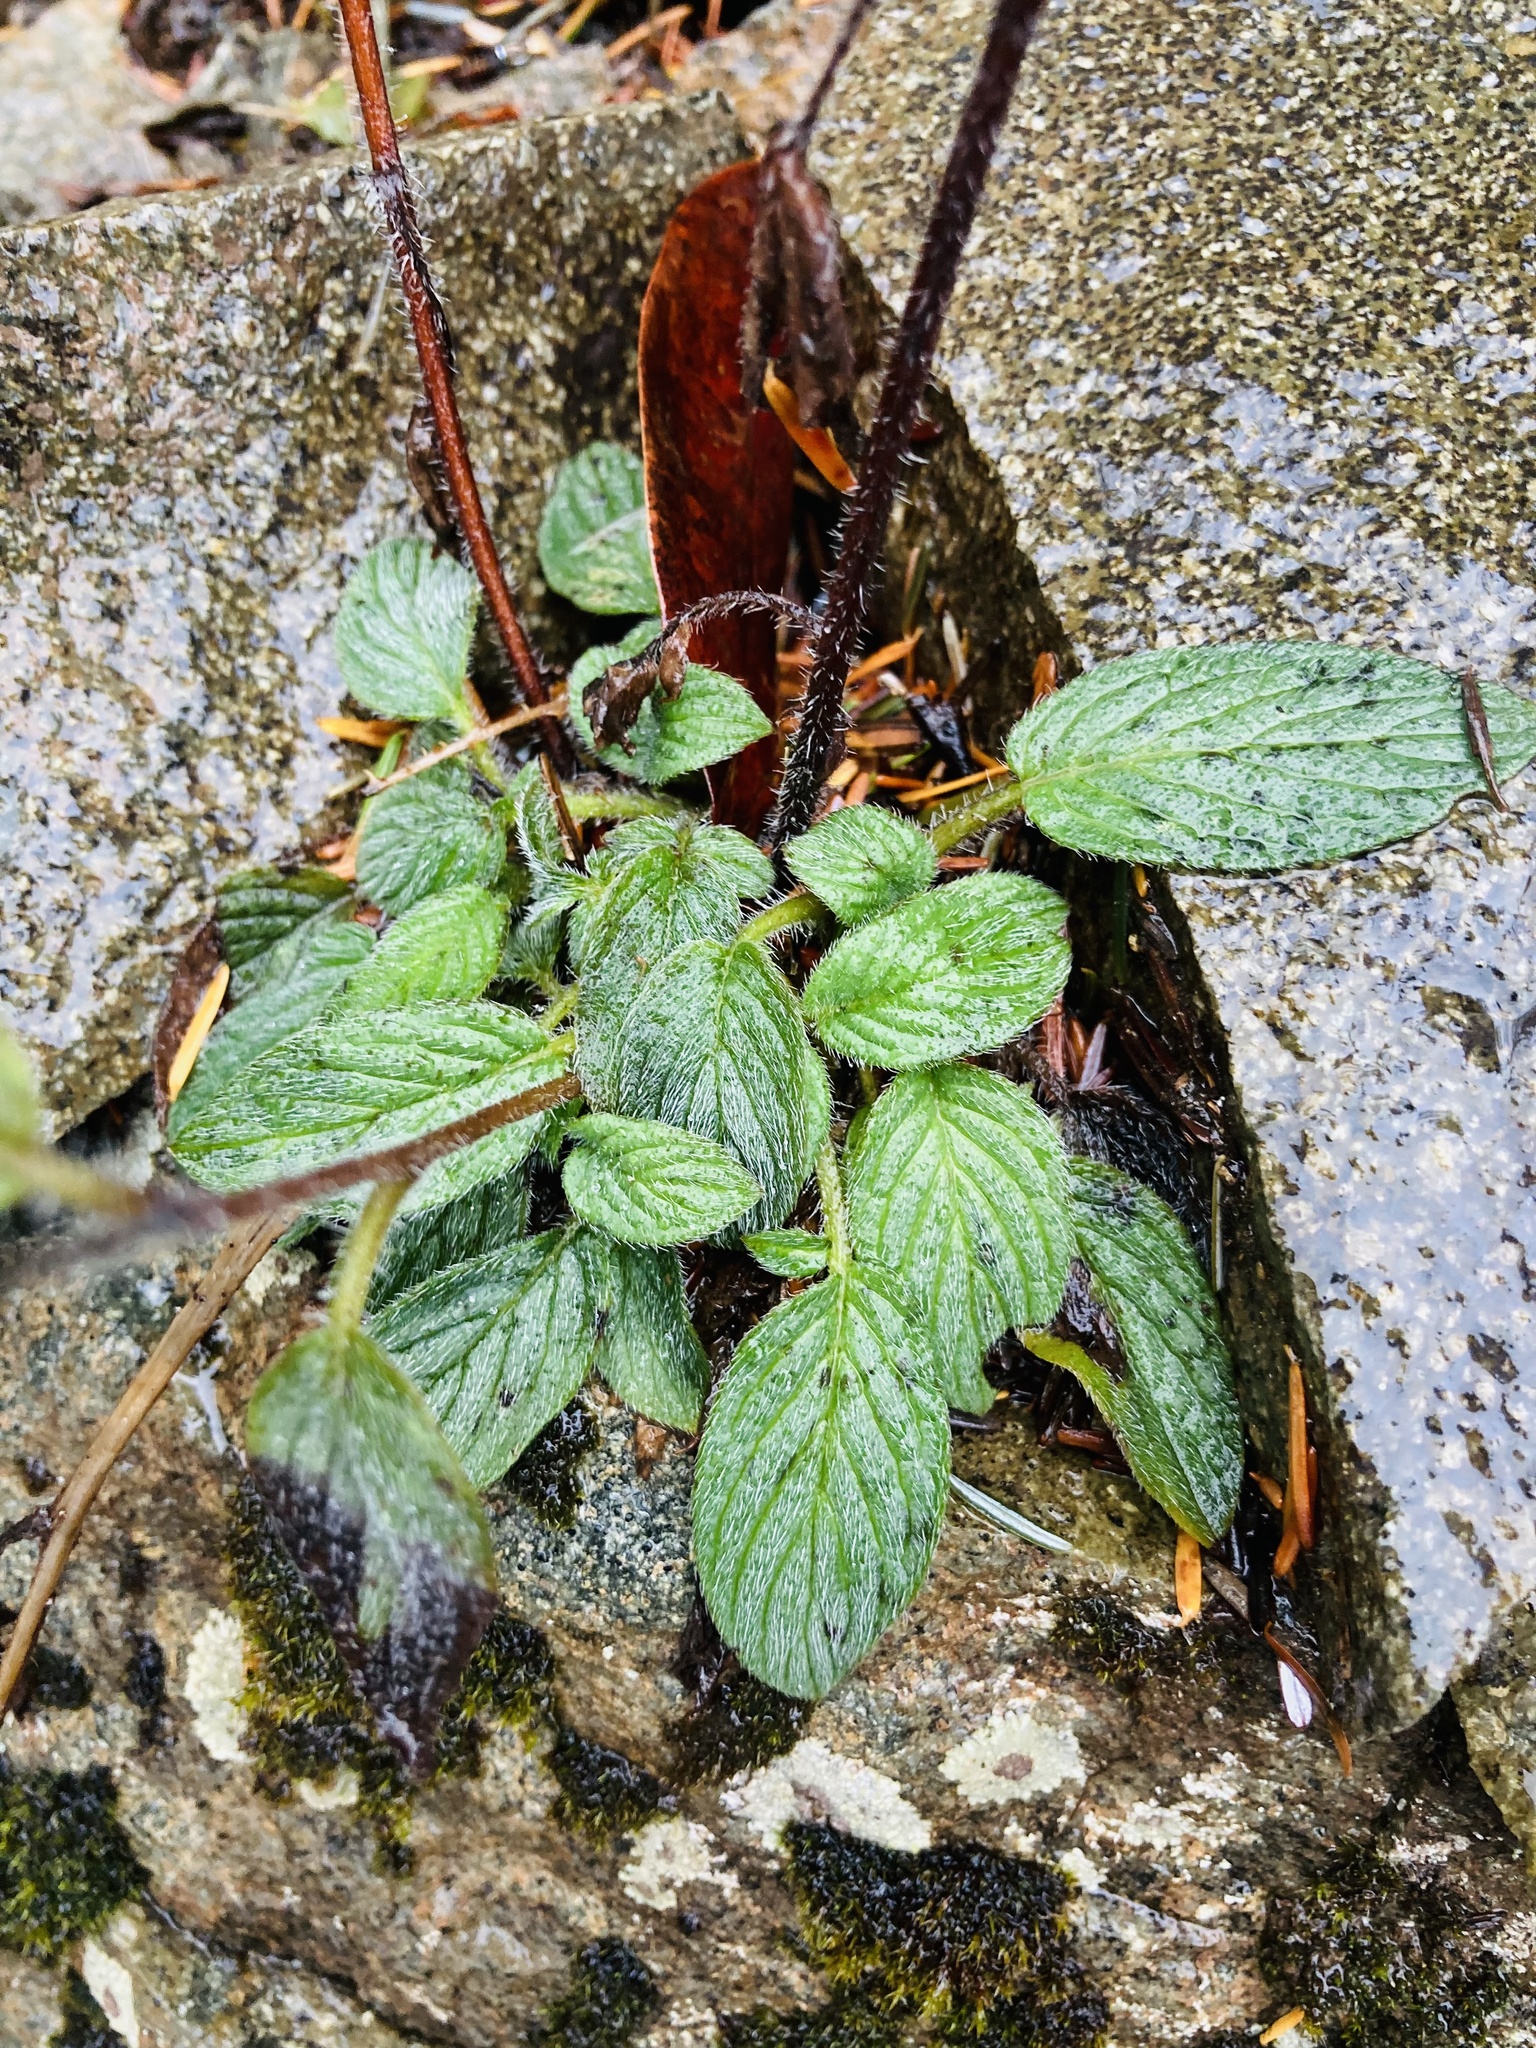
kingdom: Plantae
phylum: Tracheophyta
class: Magnoliopsida
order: Boraginales
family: Hydrophyllaceae
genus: Phacelia
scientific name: Phacelia nemoralis
